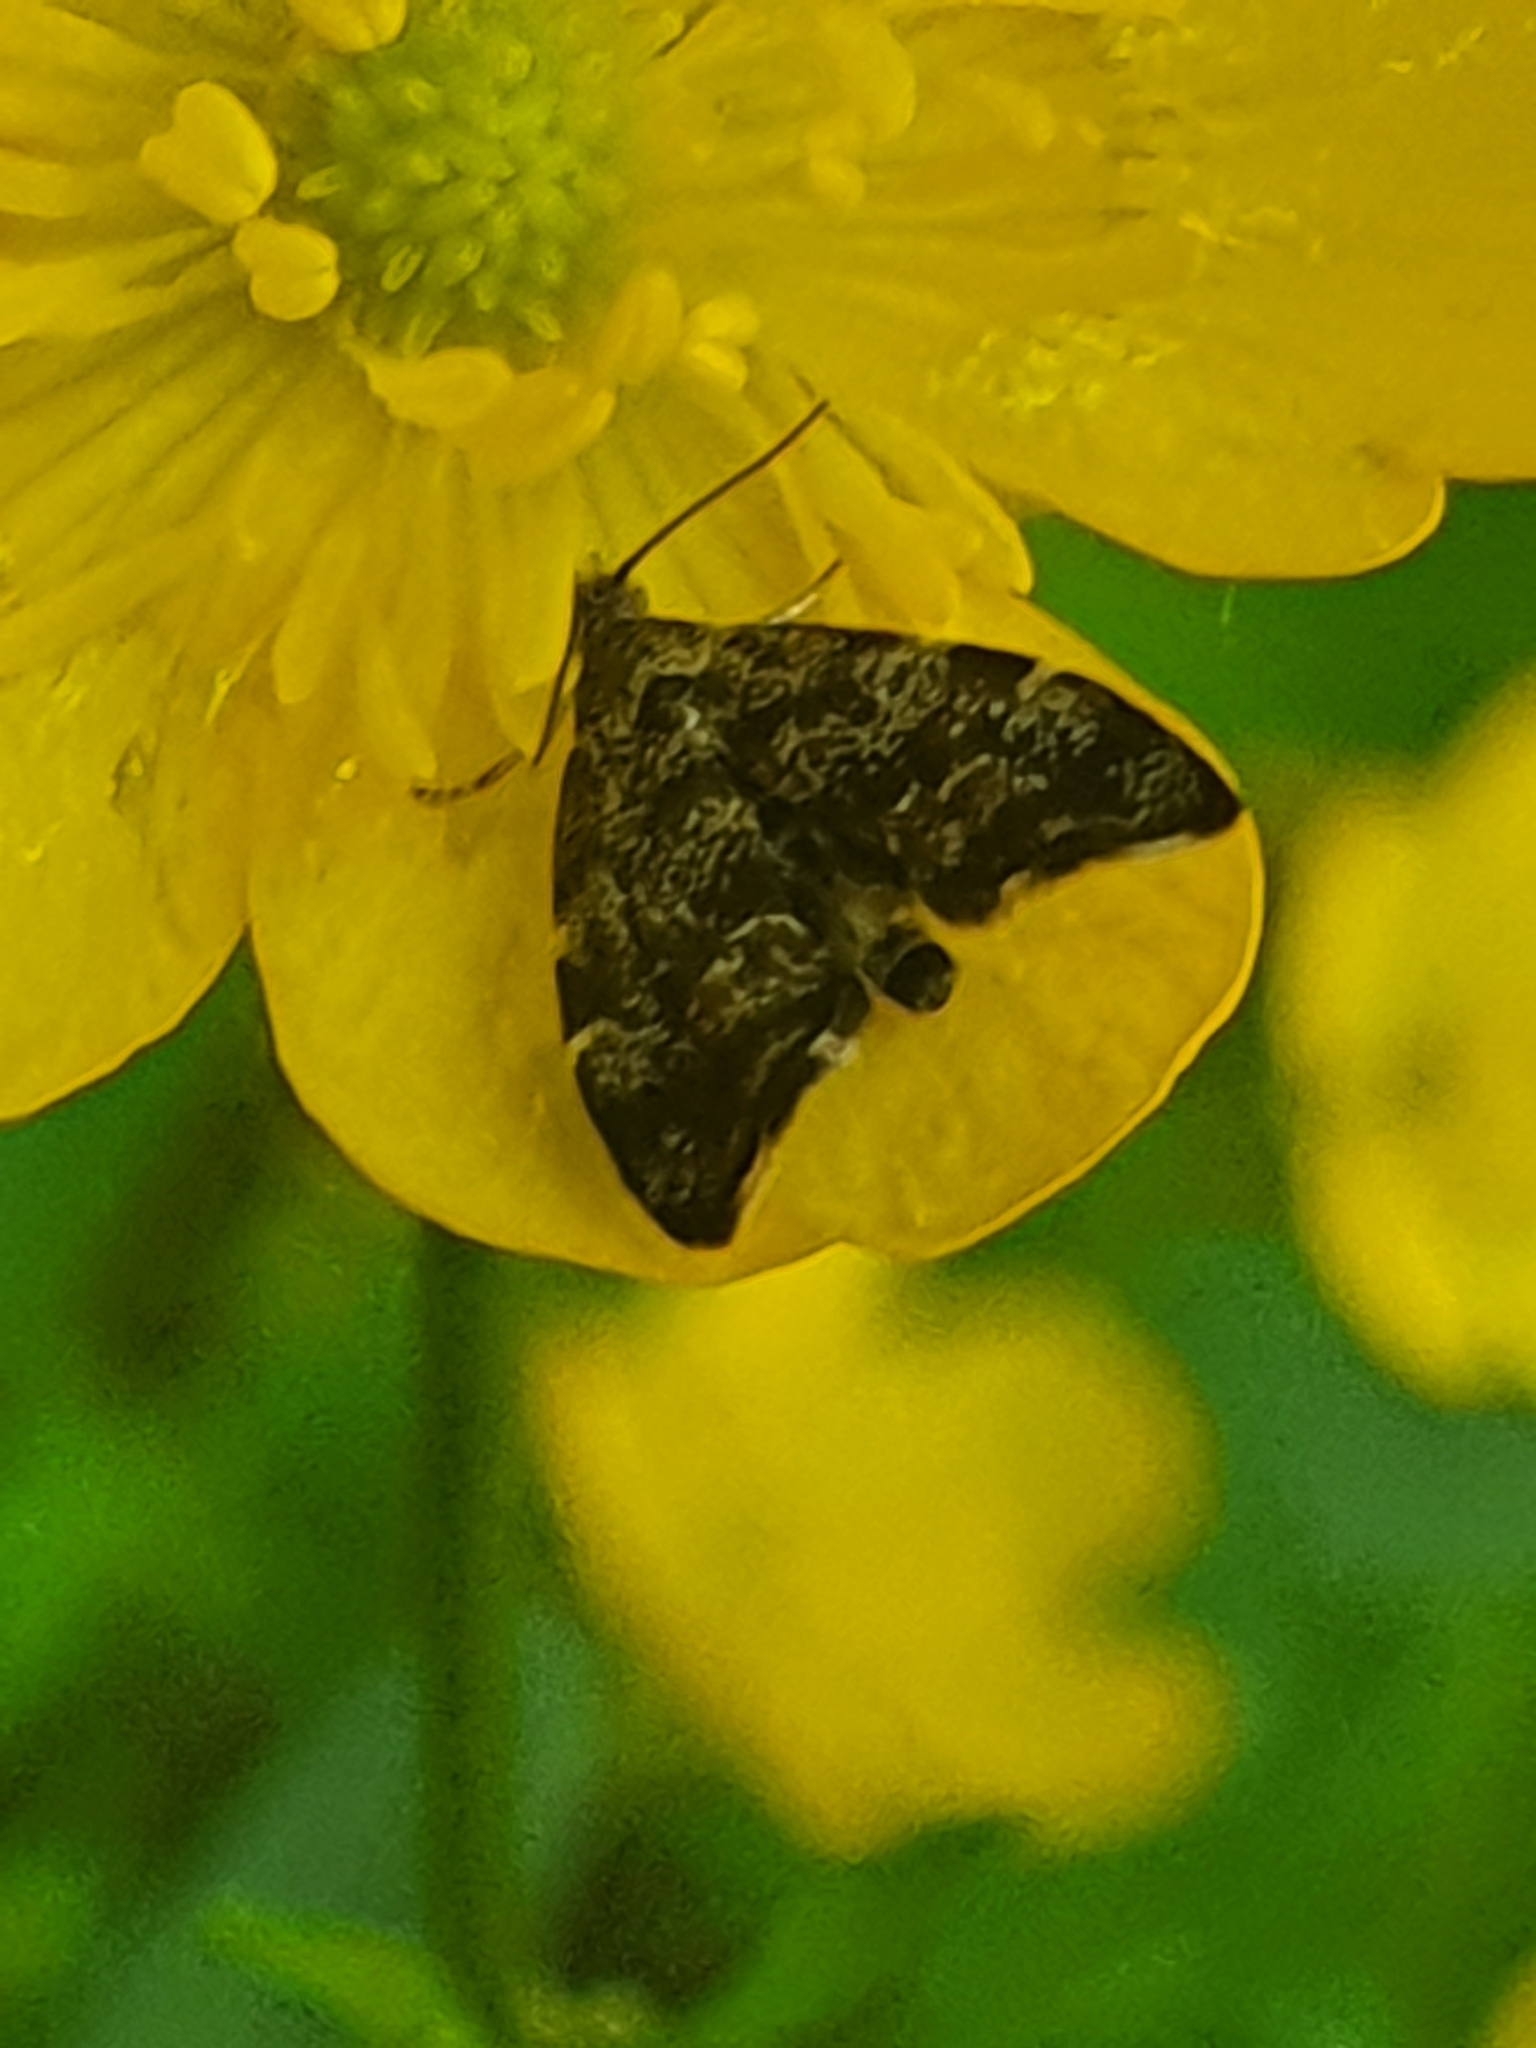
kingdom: Animalia
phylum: Arthropoda
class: Insecta
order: Lepidoptera
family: Choreutidae
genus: Anthophila
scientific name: Anthophila fabriciana
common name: Nettle-tap
